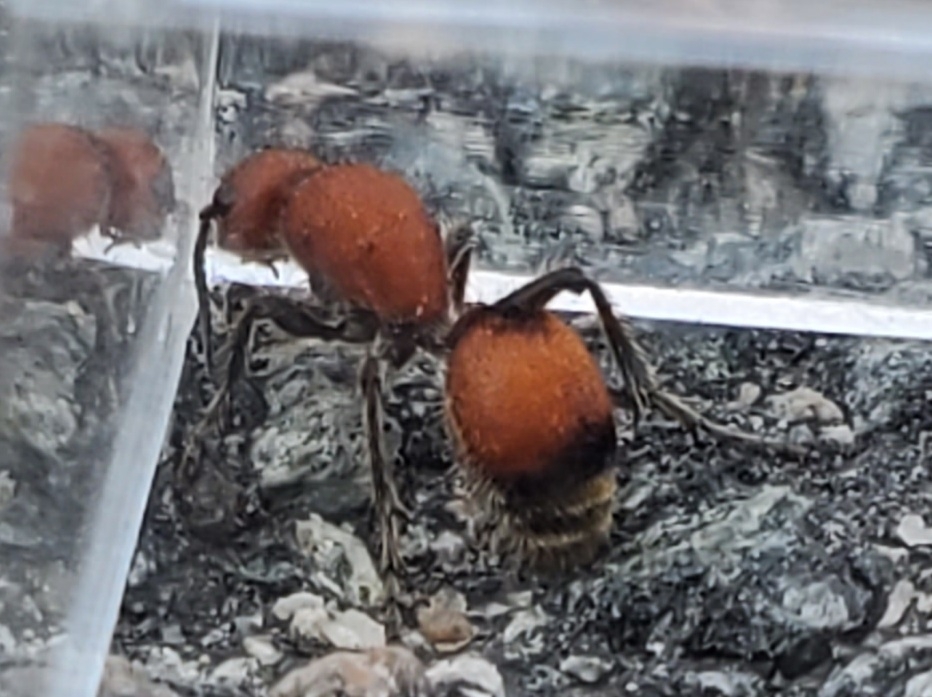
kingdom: Animalia
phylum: Arthropoda
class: Insecta
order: Hymenoptera
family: Mutillidae
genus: Dasymutilla
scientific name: Dasymutilla
